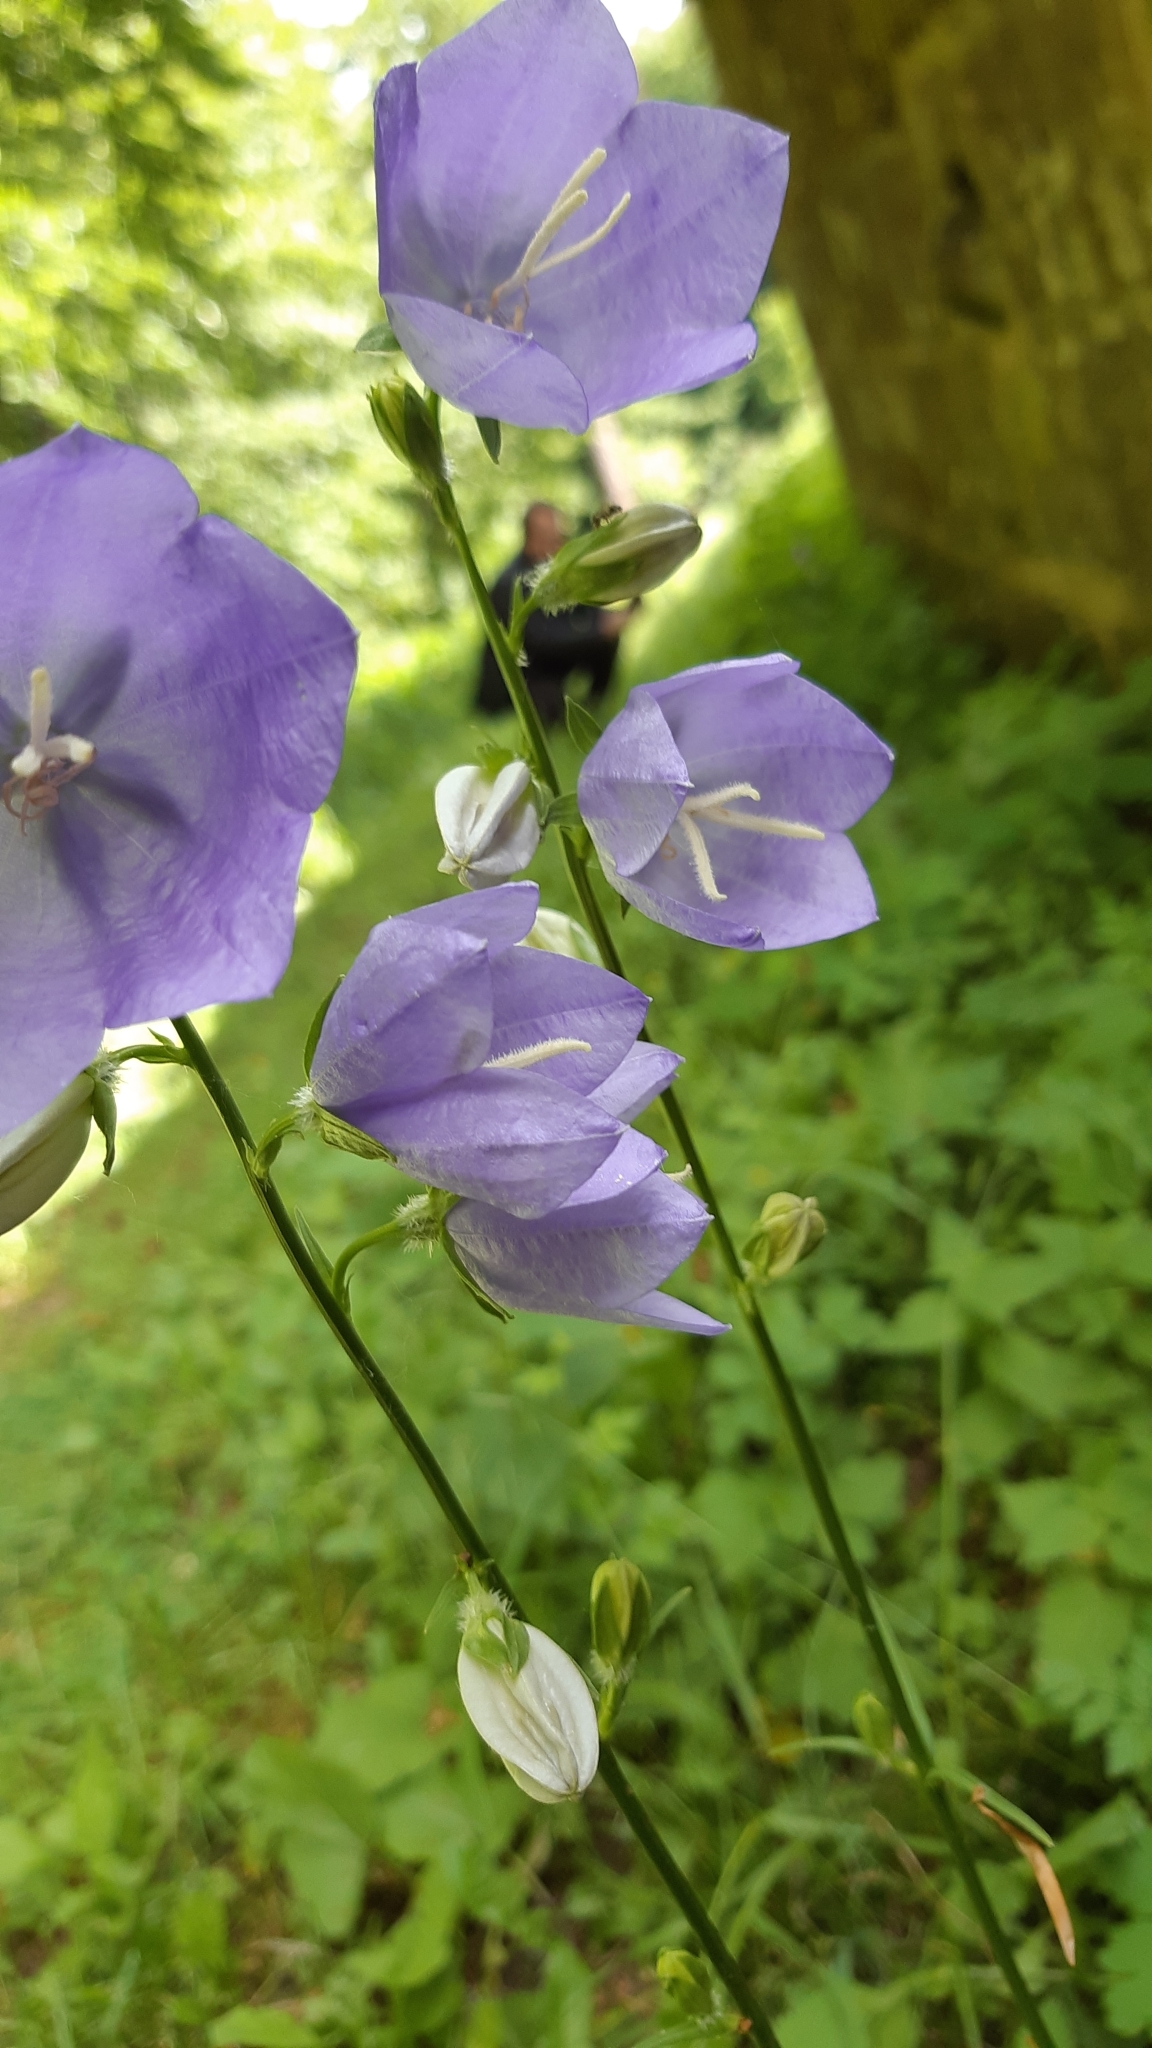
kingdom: Plantae
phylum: Tracheophyta
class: Magnoliopsida
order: Asterales
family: Campanulaceae
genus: Campanula
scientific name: Campanula persicifolia
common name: Peach-leaved bellflower
